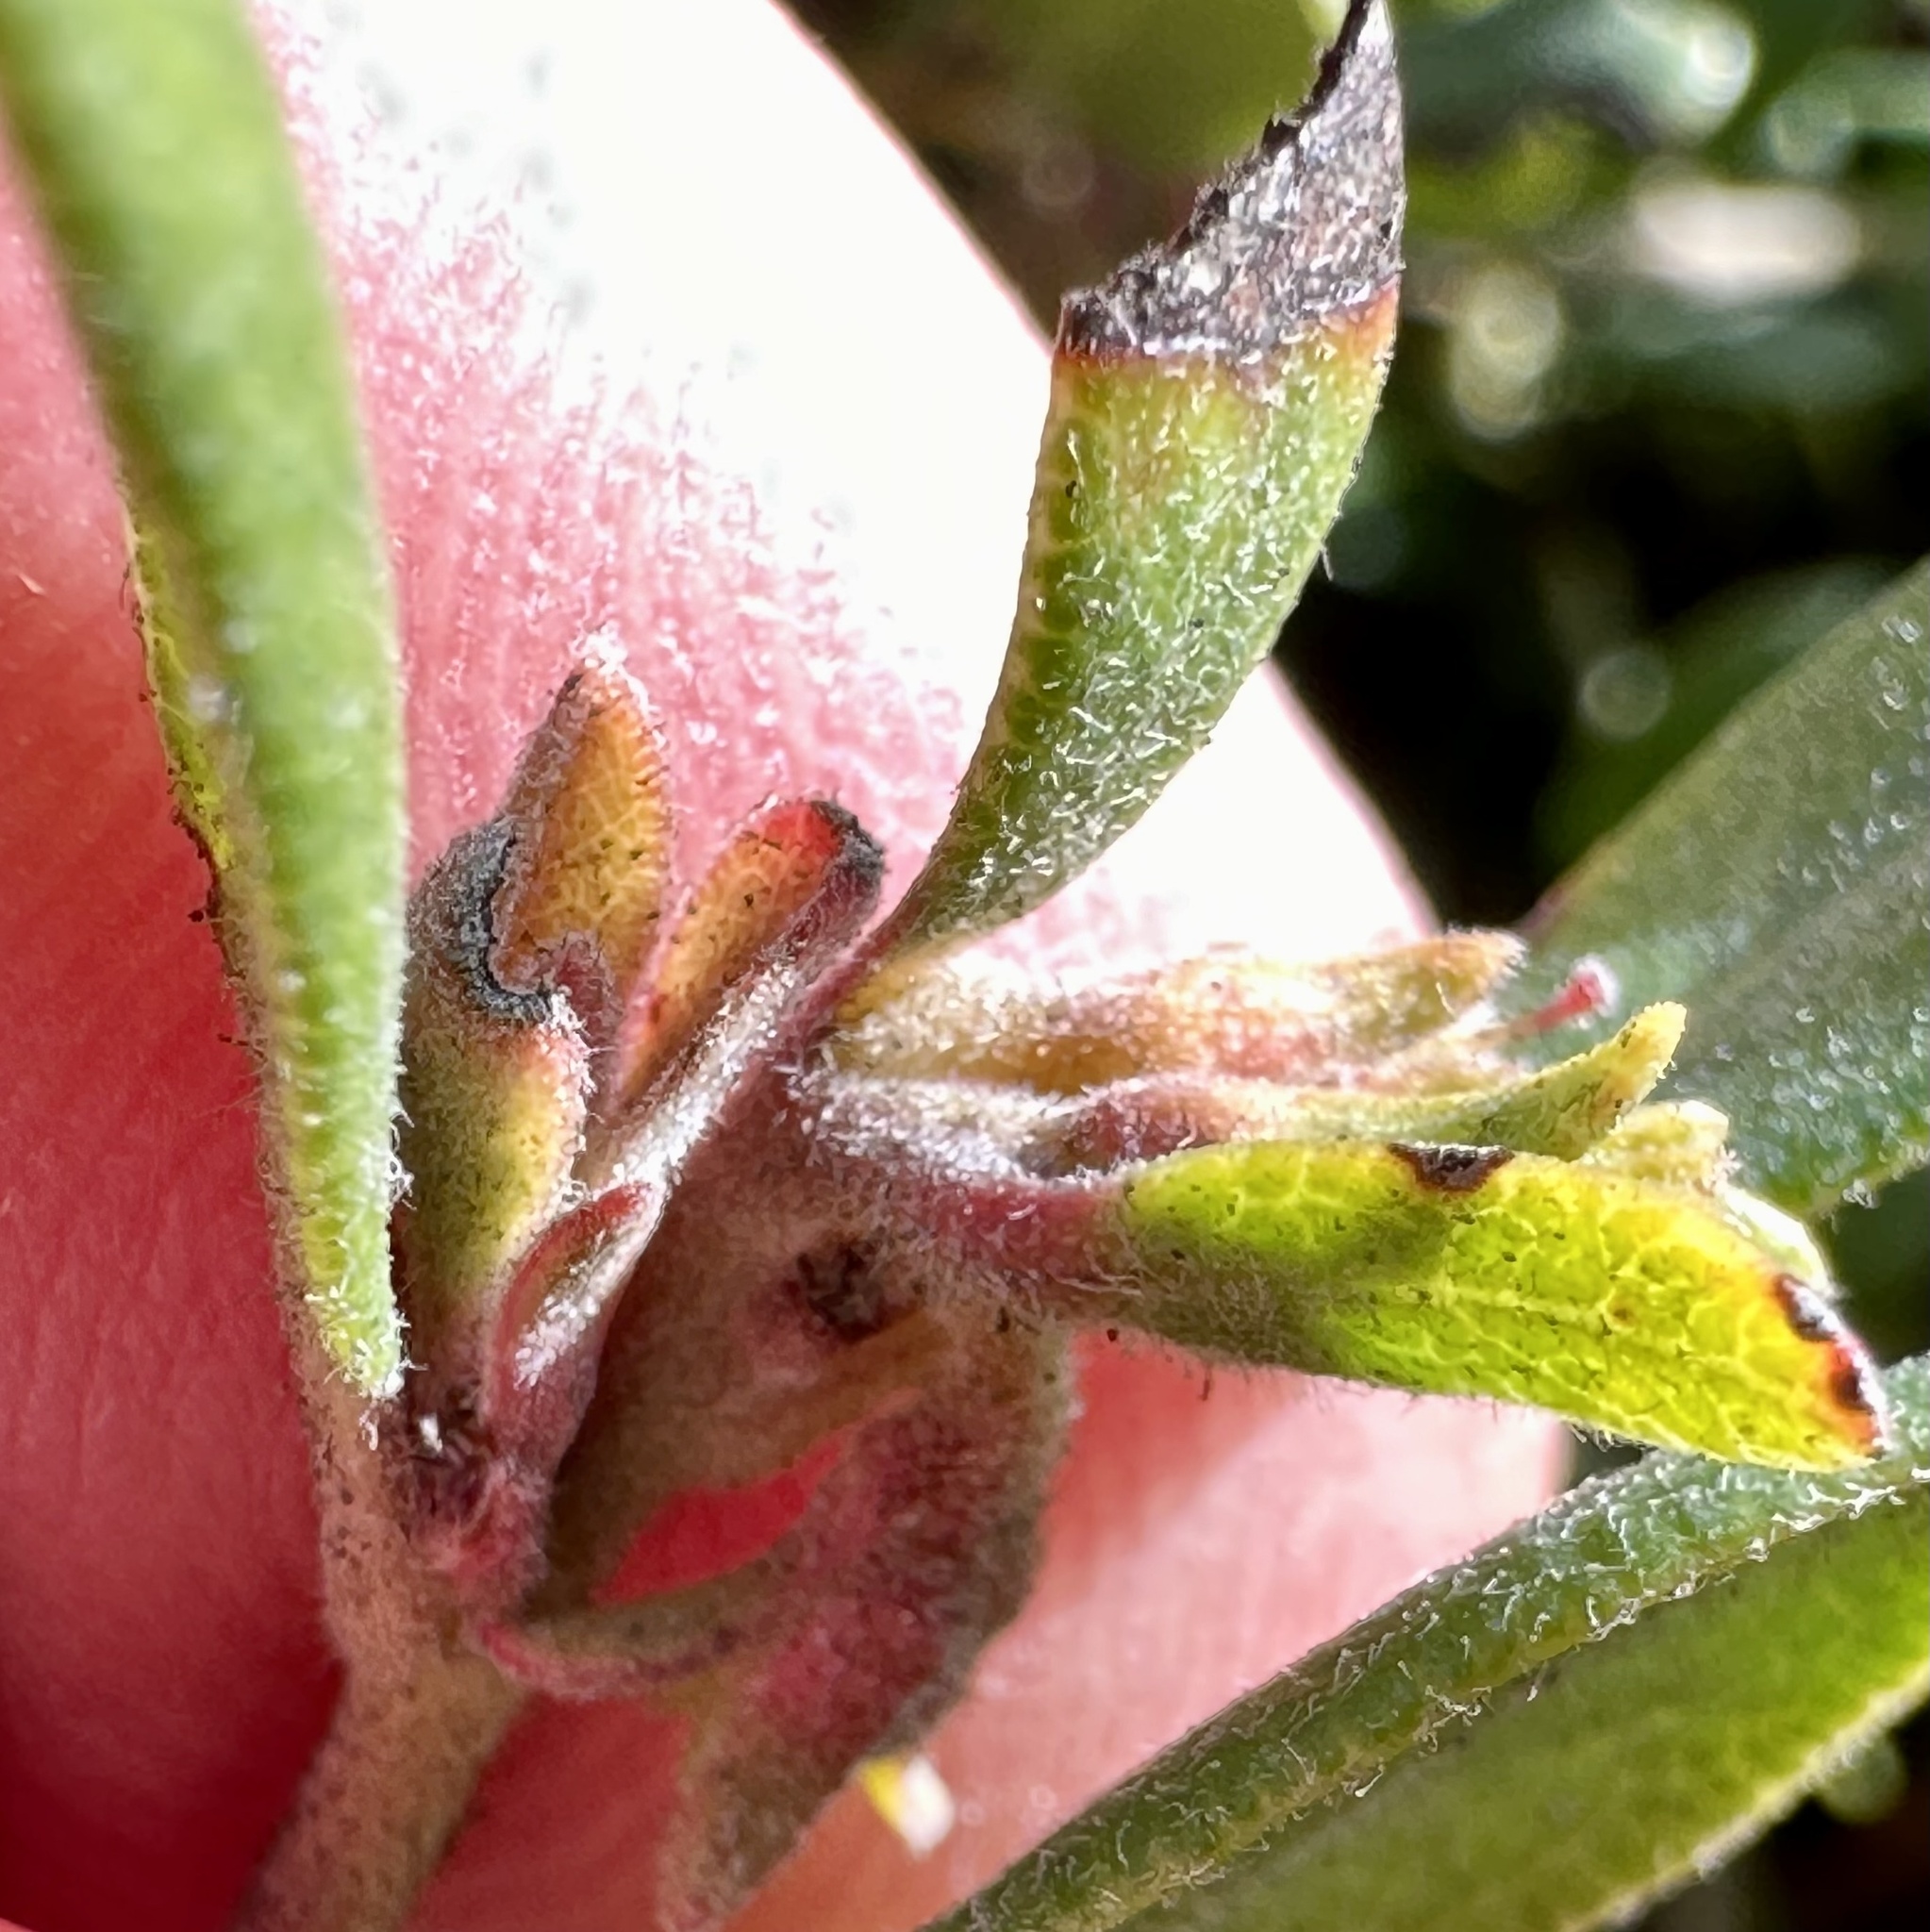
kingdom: Plantae
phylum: Tracheophyta
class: Magnoliopsida
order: Ericales
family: Ericaceae
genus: Arctostaphylos
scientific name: Arctostaphylos pumila
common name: Sandmat manzanita
